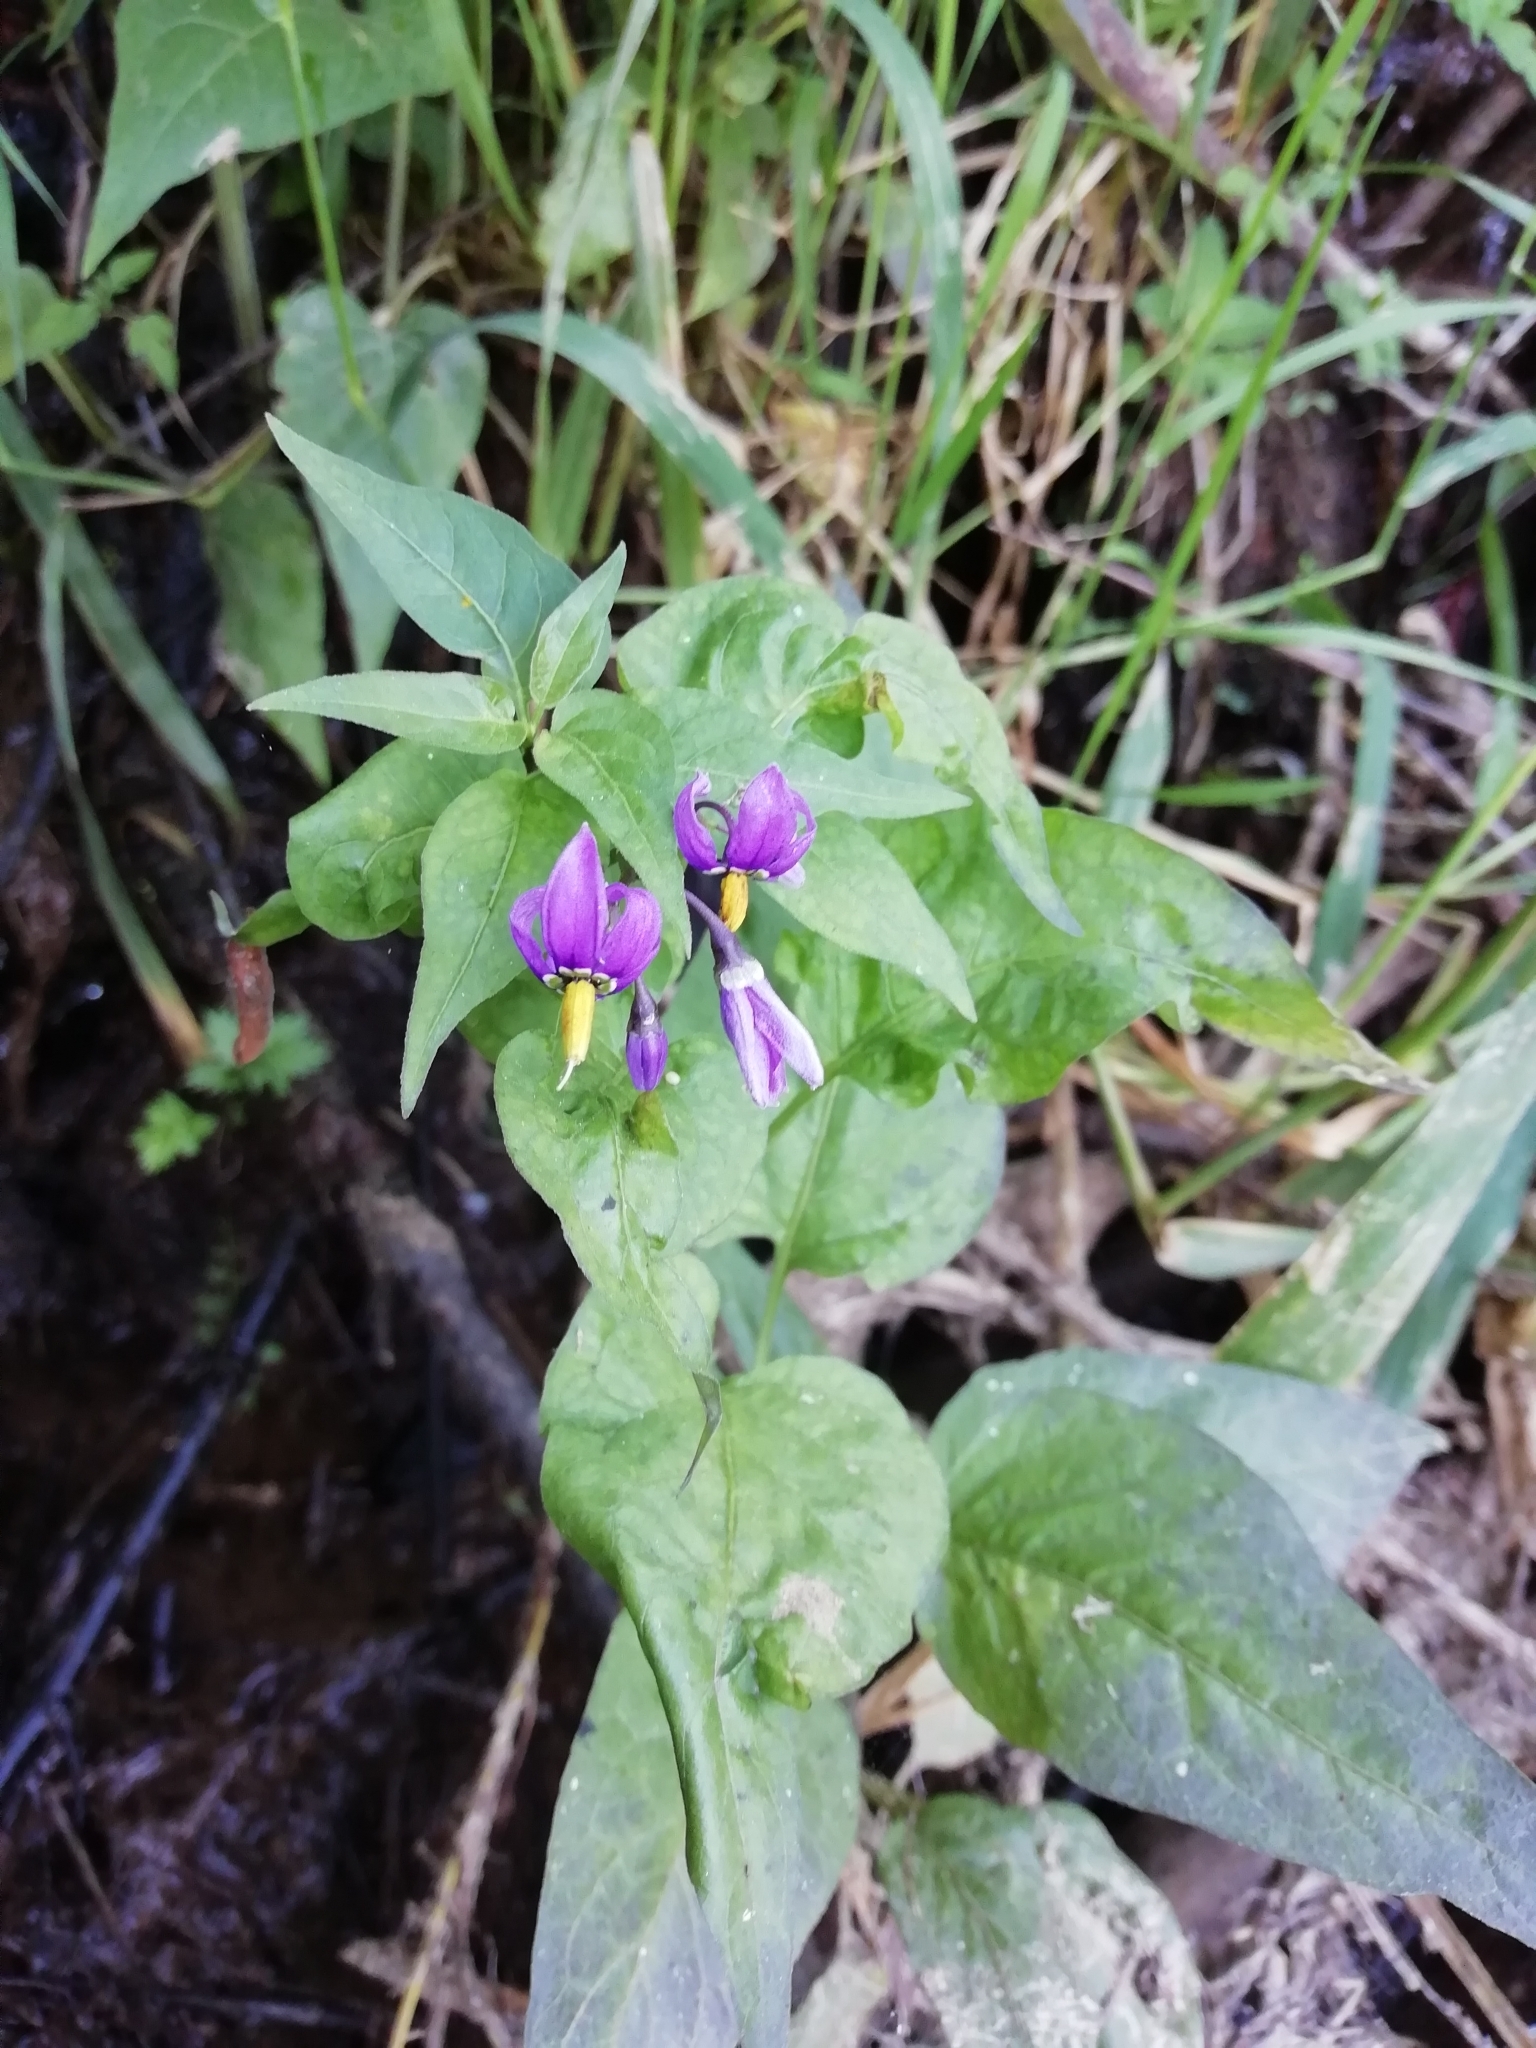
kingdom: Plantae
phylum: Tracheophyta
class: Magnoliopsida
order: Solanales
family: Solanaceae
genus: Solanum
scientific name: Solanum dulcamara
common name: Climbing nightshade
